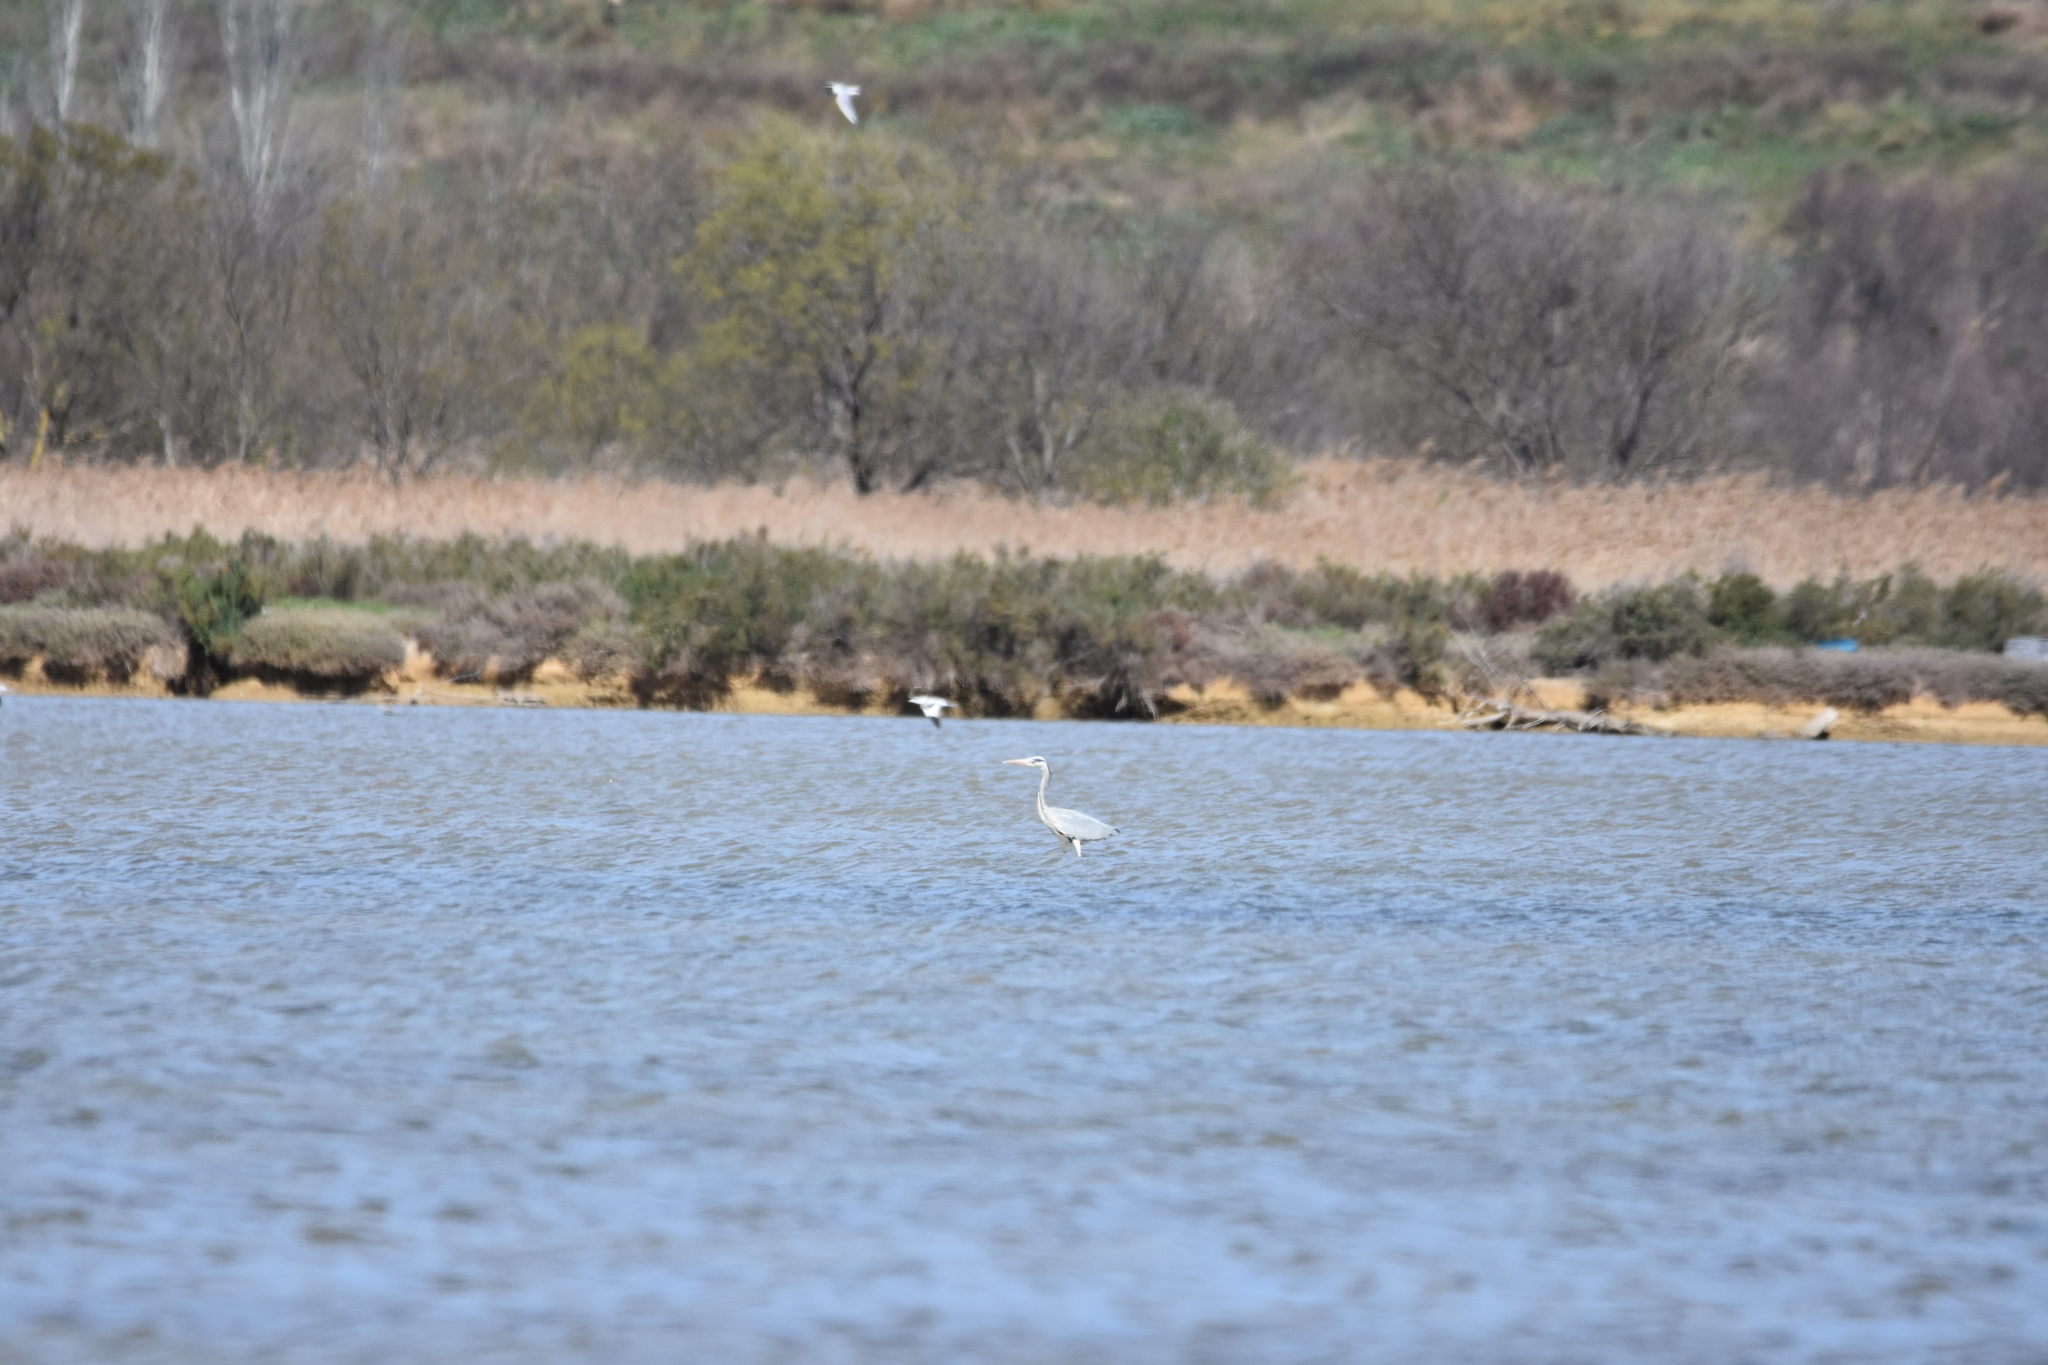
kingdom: Animalia
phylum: Chordata
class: Aves
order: Pelecaniformes
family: Ardeidae
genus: Ardea
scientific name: Ardea cinerea
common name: Grey heron
